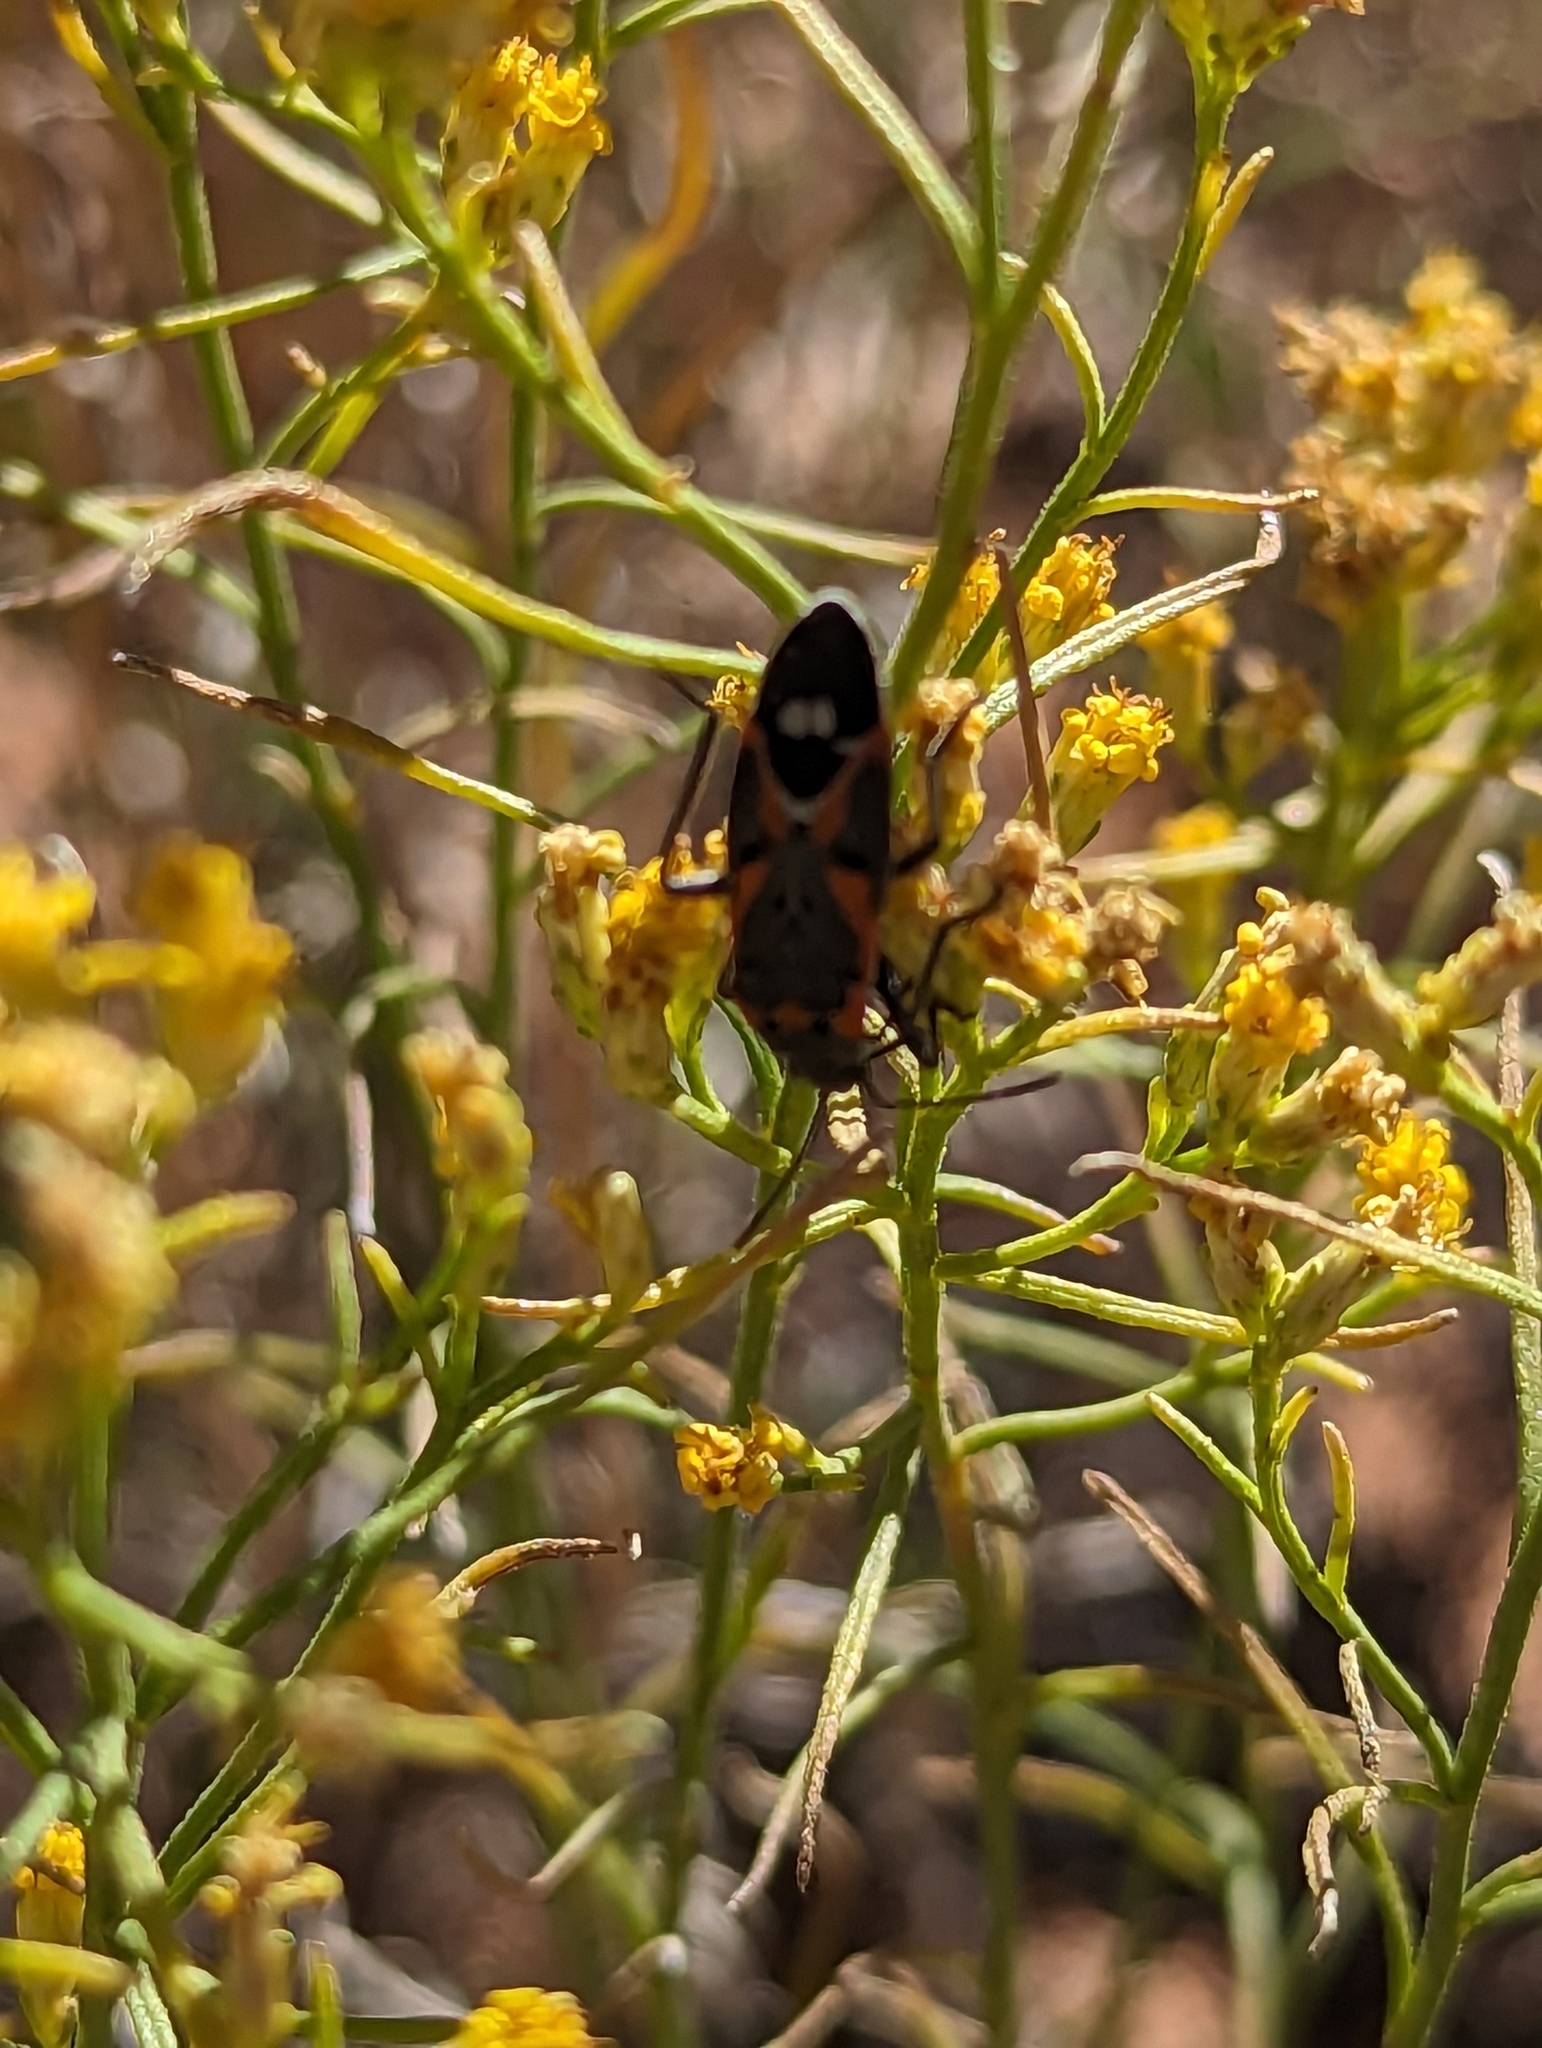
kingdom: Animalia
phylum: Arthropoda
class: Insecta
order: Hemiptera
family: Lygaeidae
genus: Lygaeus
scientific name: Lygaeus kalmii
